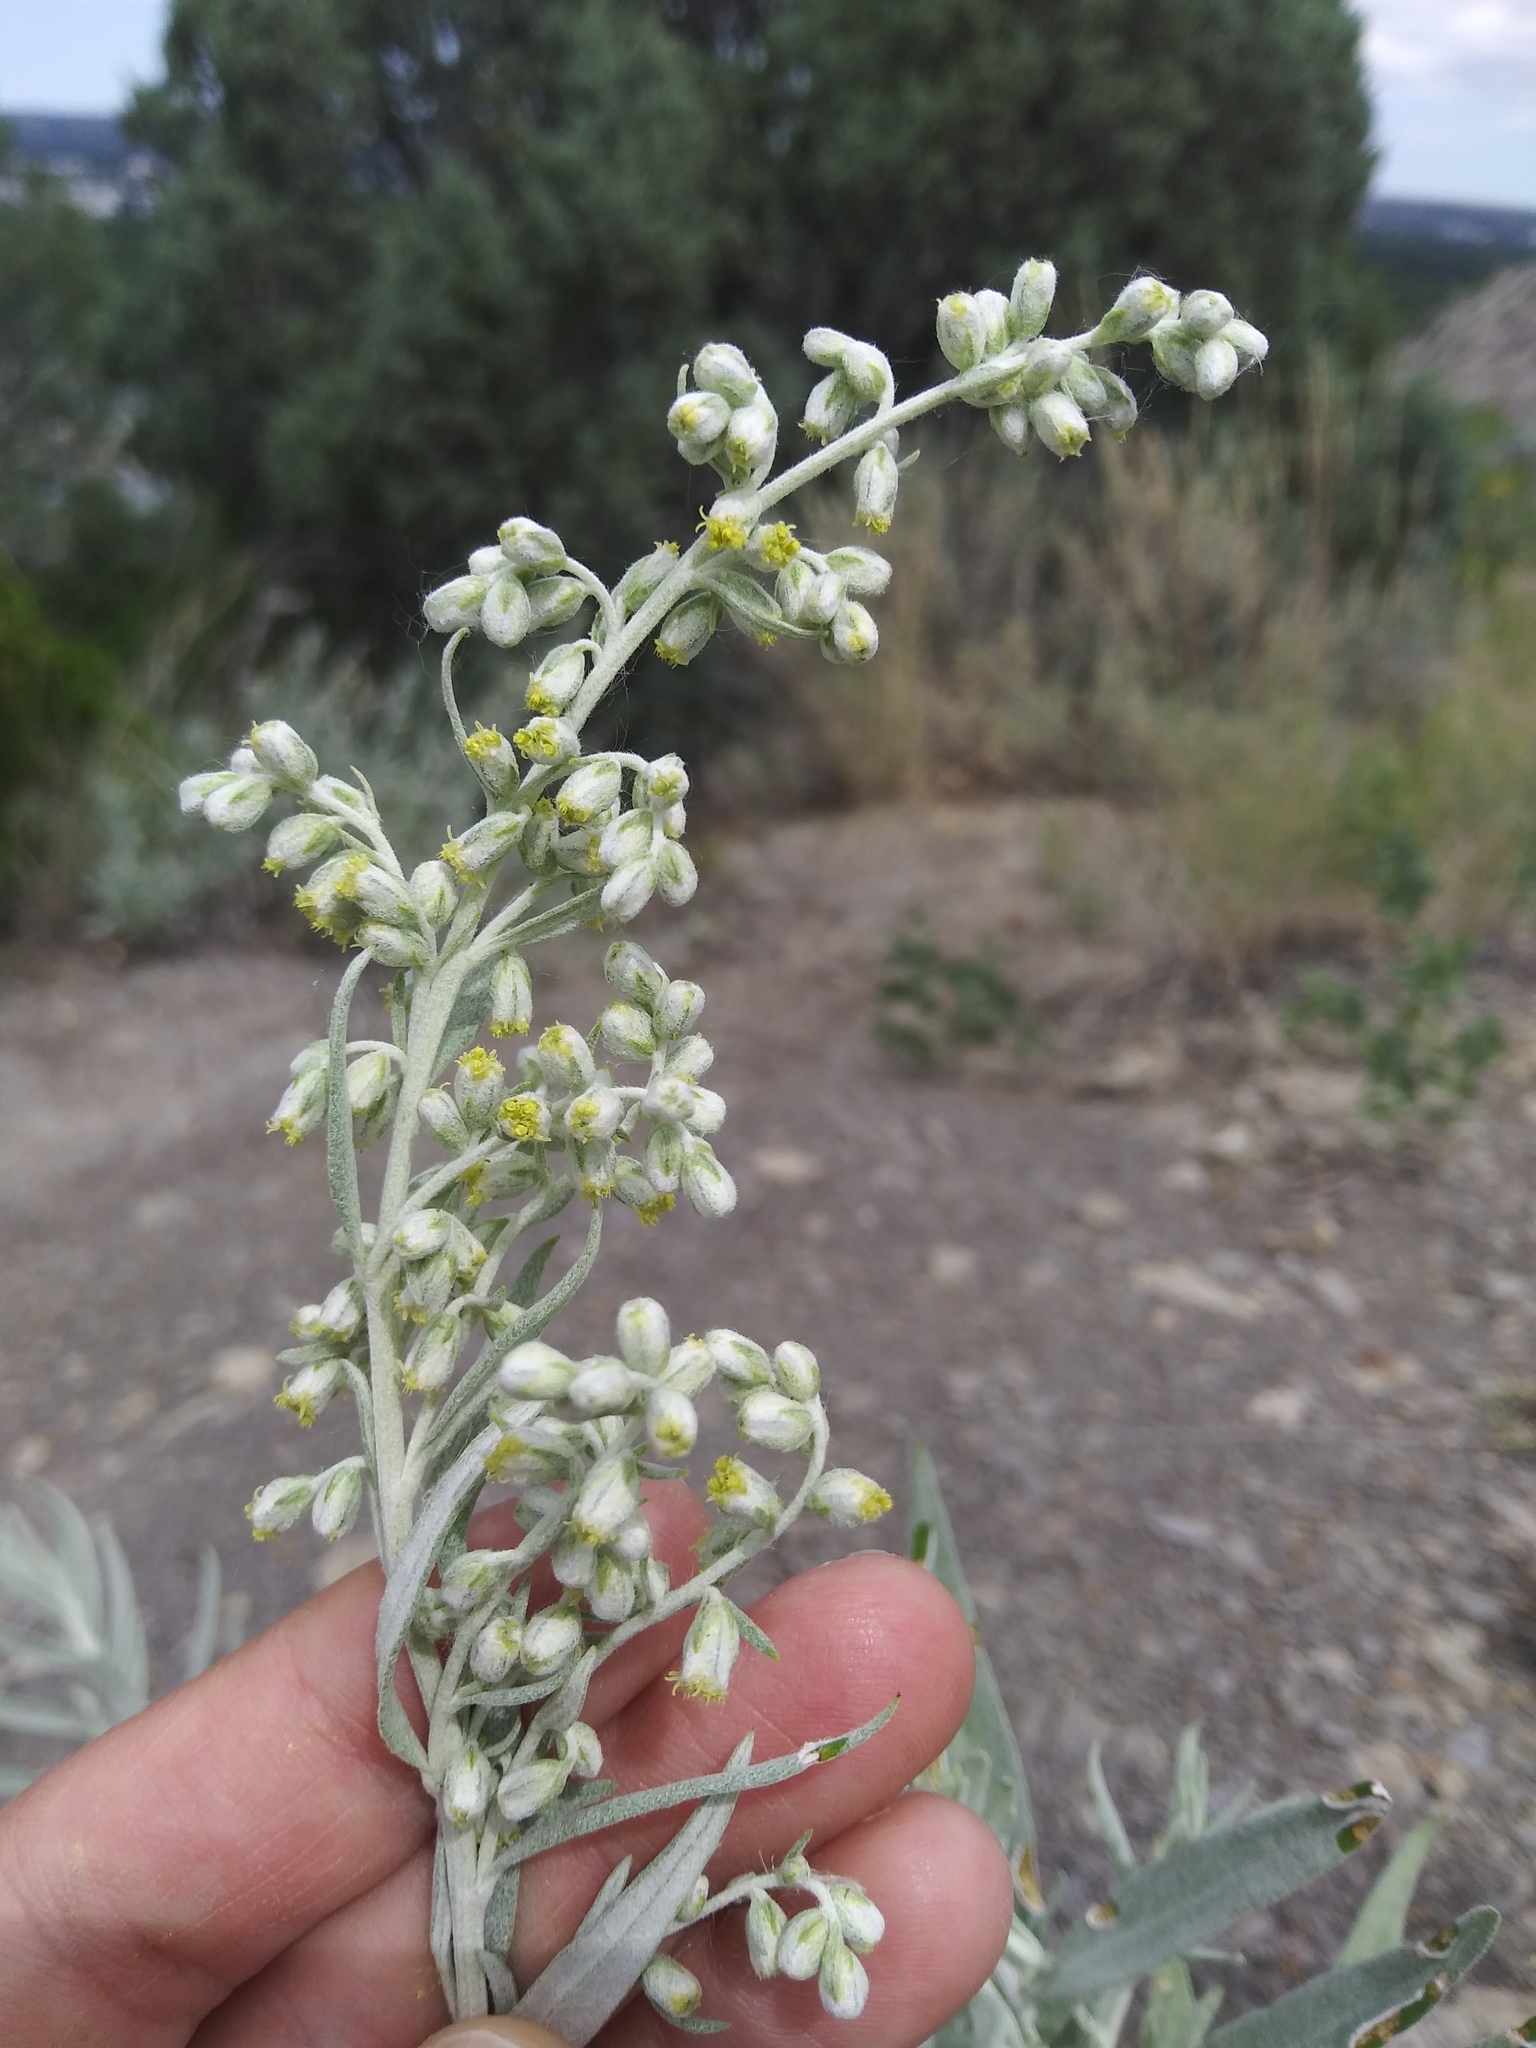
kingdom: Plantae
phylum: Tracheophyta
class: Magnoliopsida
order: Asterales
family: Asteraceae
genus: Artemisia
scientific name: Artemisia ludoviciana
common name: Western mugwort
